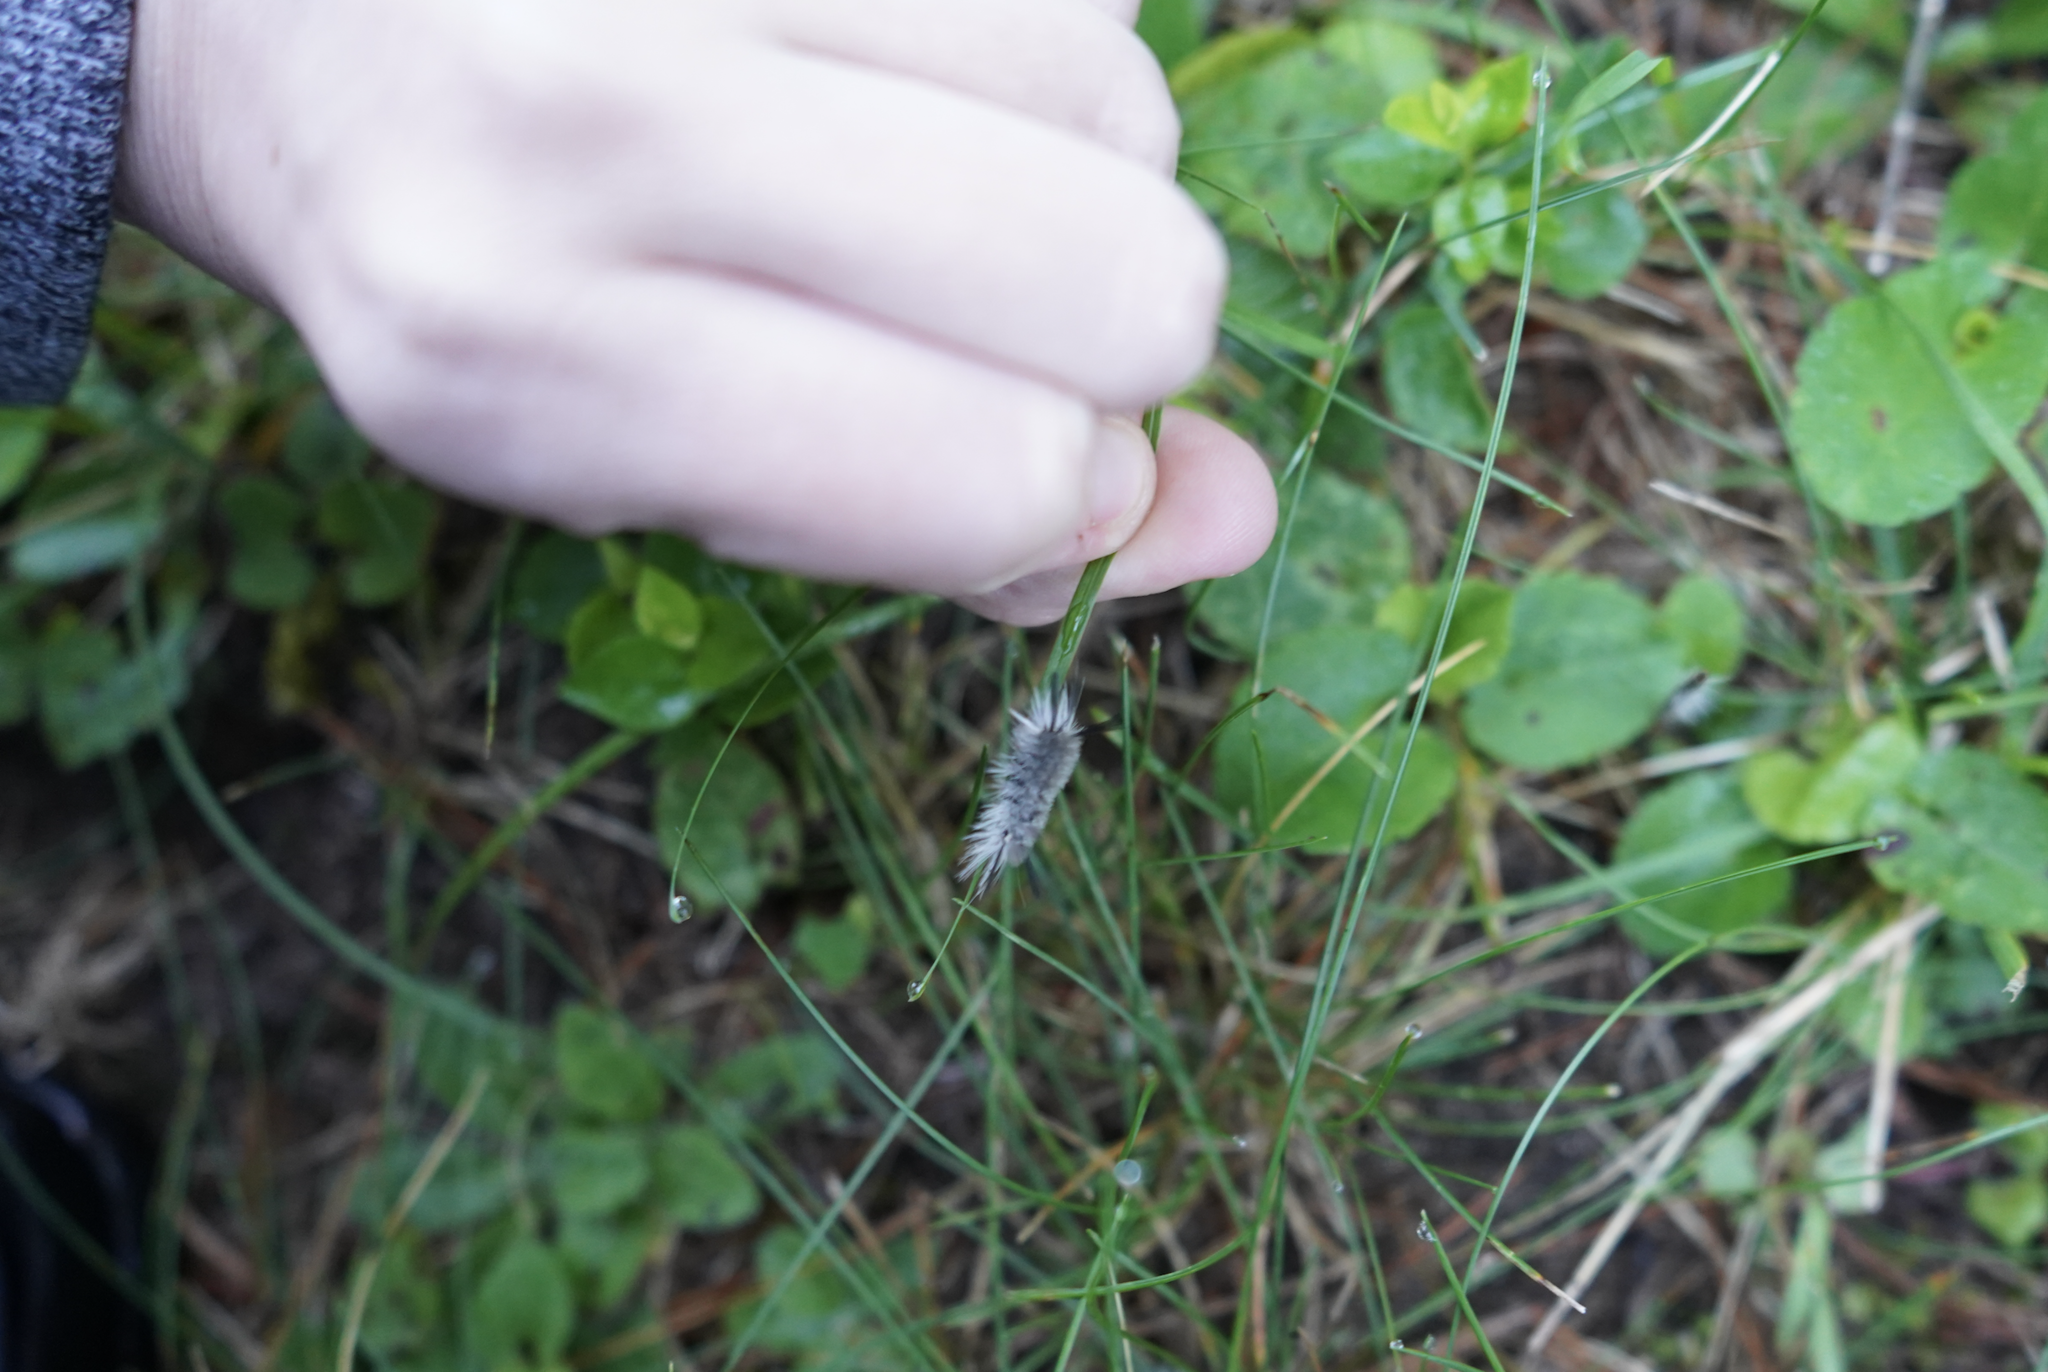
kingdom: Animalia
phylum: Arthropoda
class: Insecta
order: Lepidoptera
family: Erebidae
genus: Halysidota
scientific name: Halysidota tessellaris
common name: Banded tussock moth
